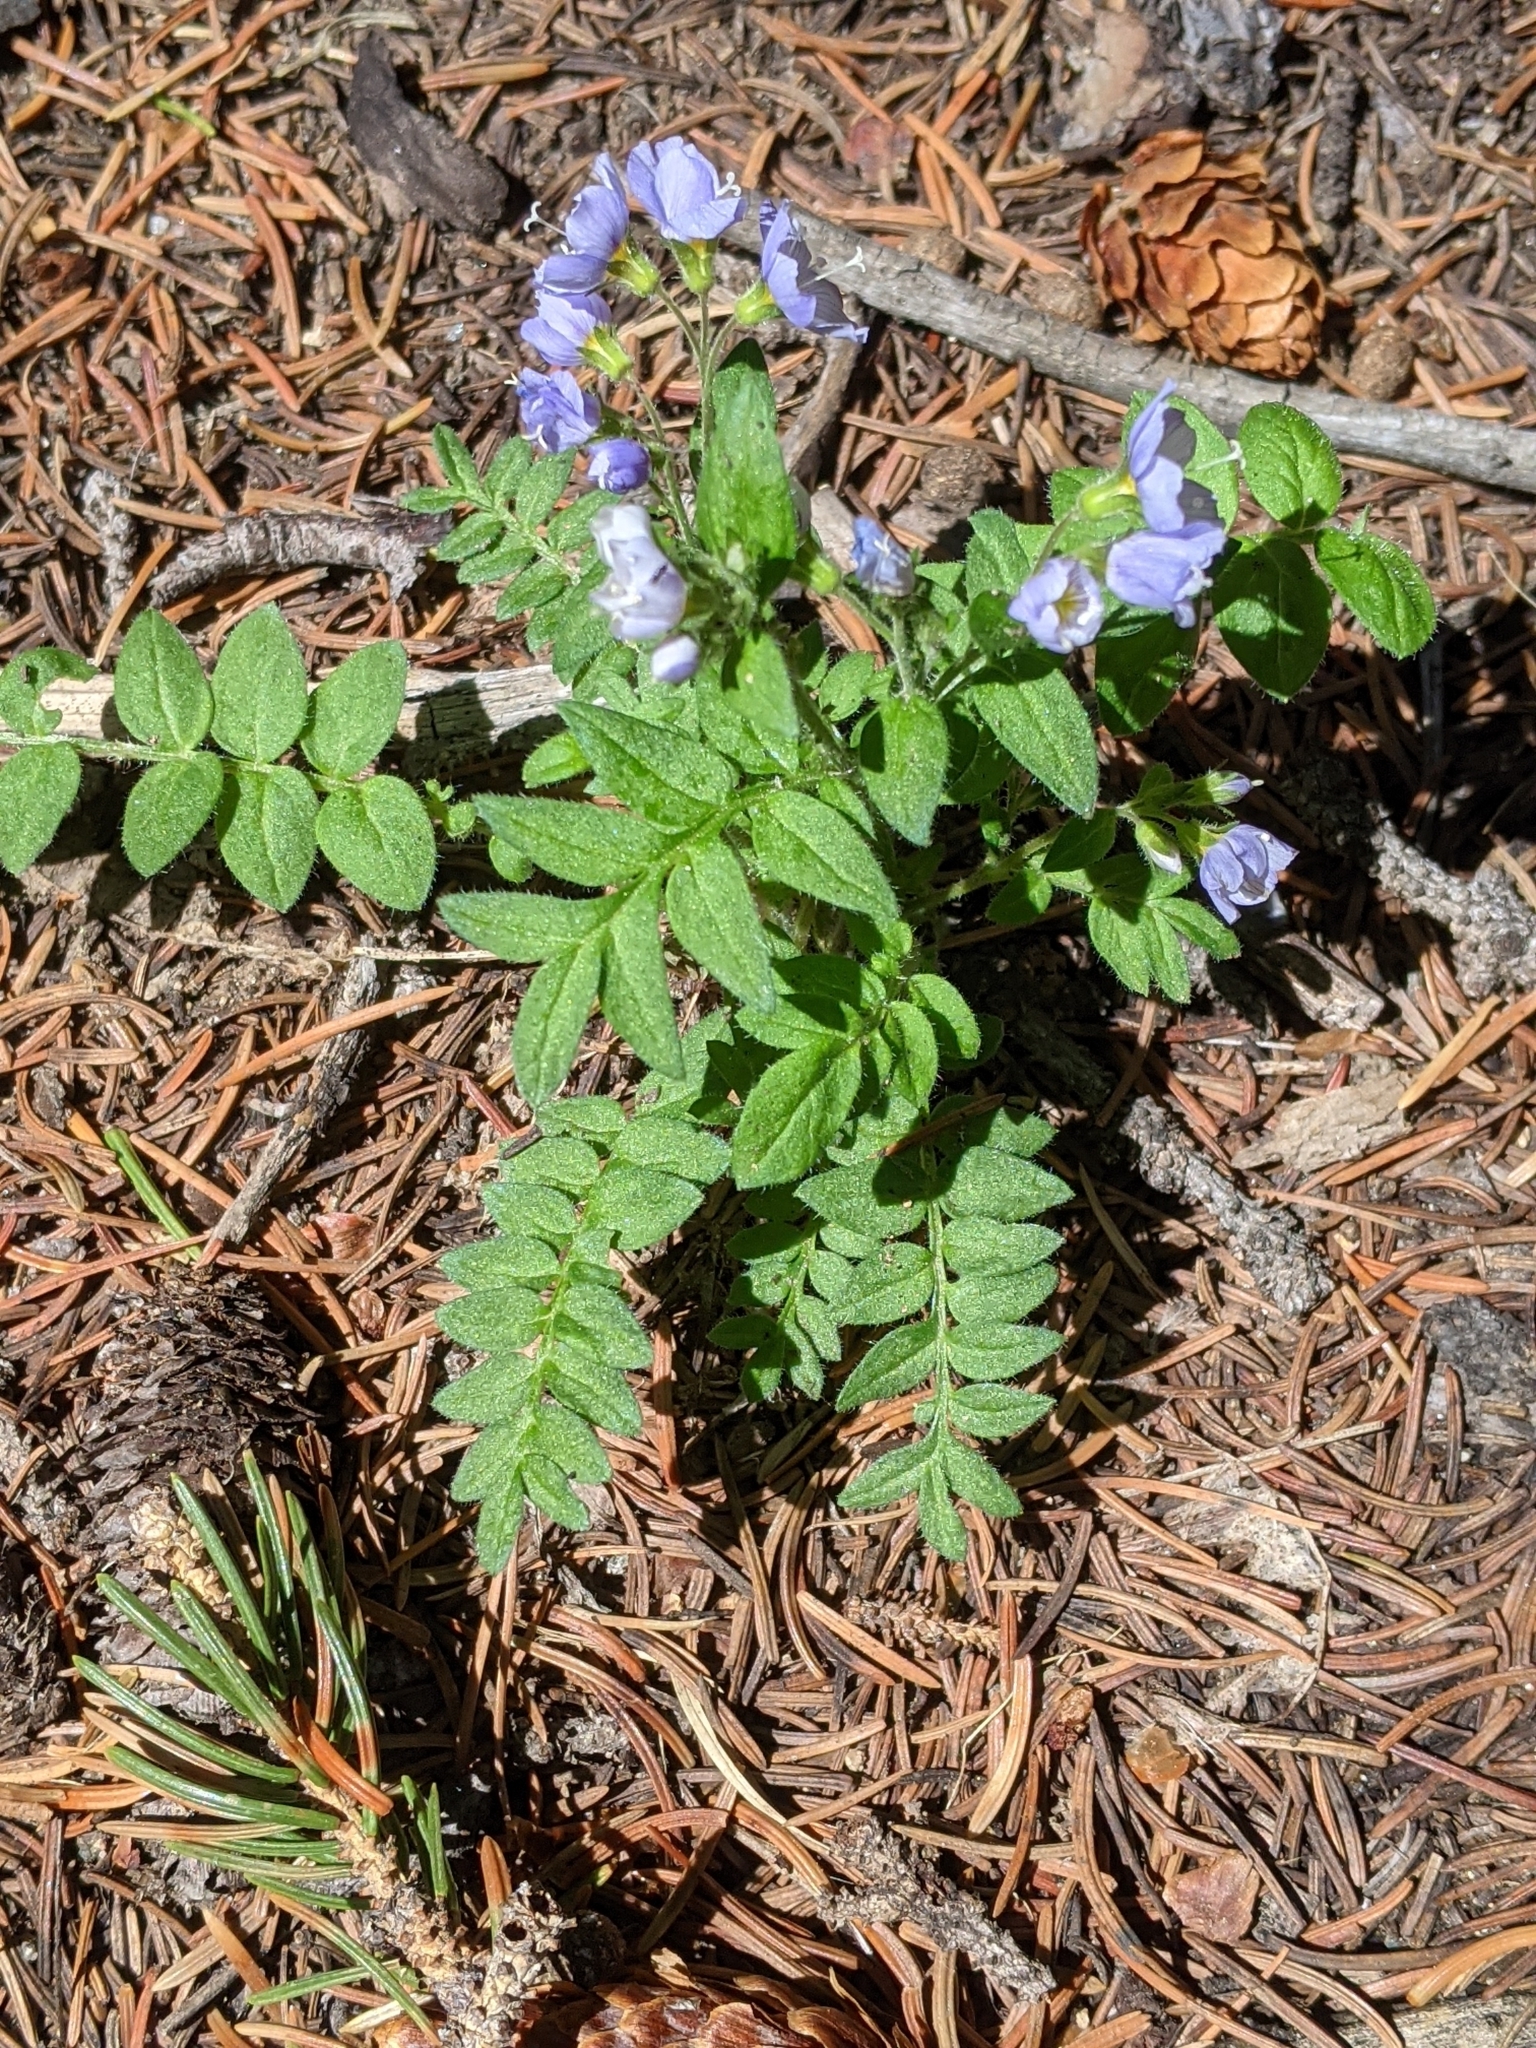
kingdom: Plantae
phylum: Tracheophyta
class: Magnoliopsida
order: Ericales
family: Polemoniaceae
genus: Polemonium
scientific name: Polemonium pulcherrimum
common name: Short jacob's-ladder
